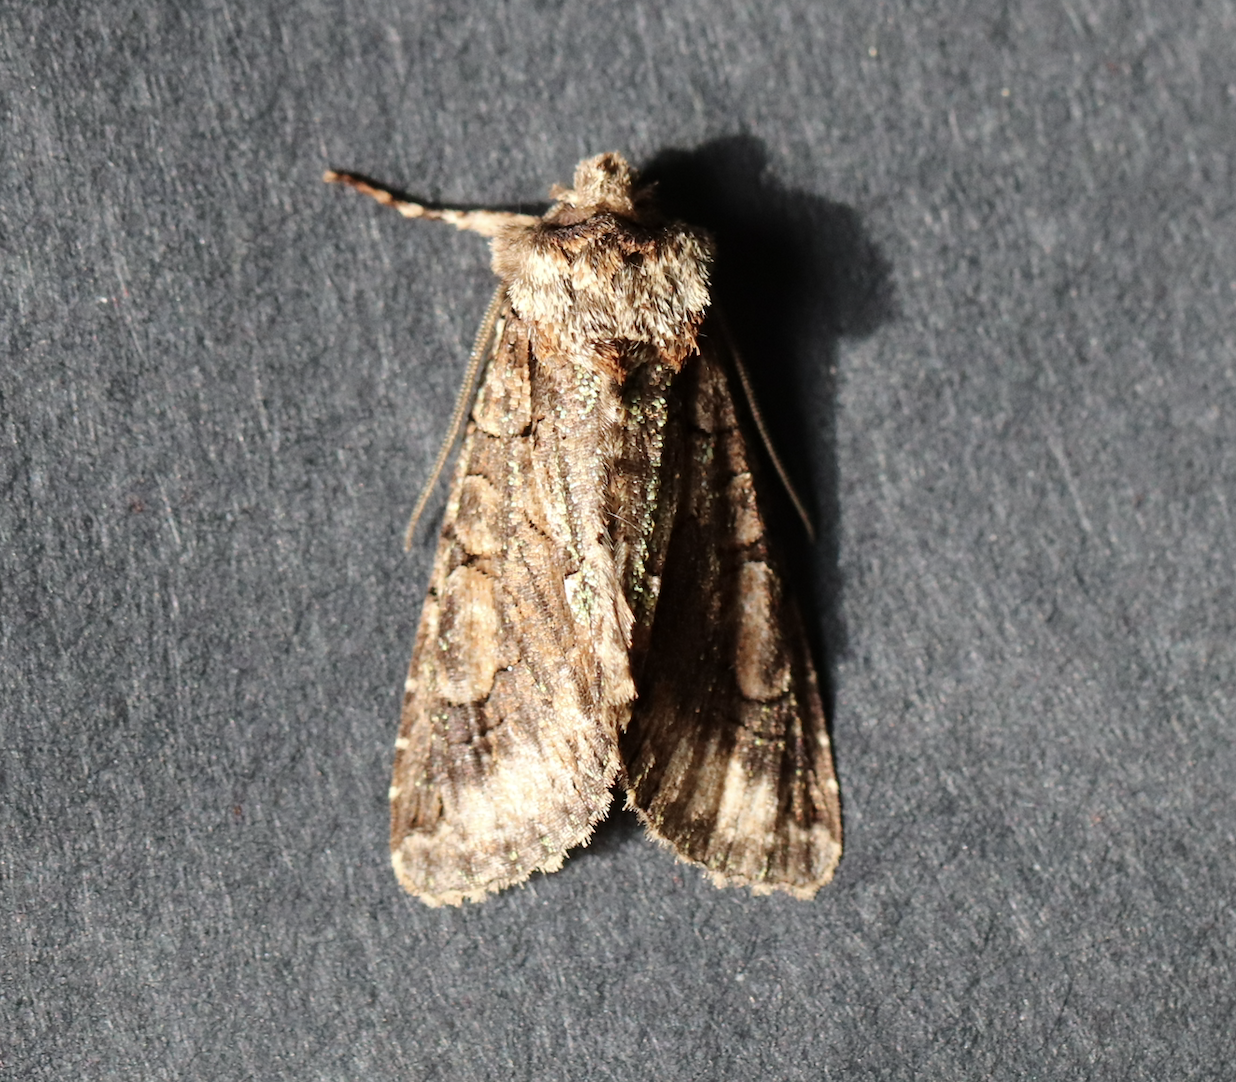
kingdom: Animalia
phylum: Arthropoda
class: Insecta
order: Lepidoptera
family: Noctuidae
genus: Allophyes
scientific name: Allophyes oxyacanthae
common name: Green-brindled crescent
